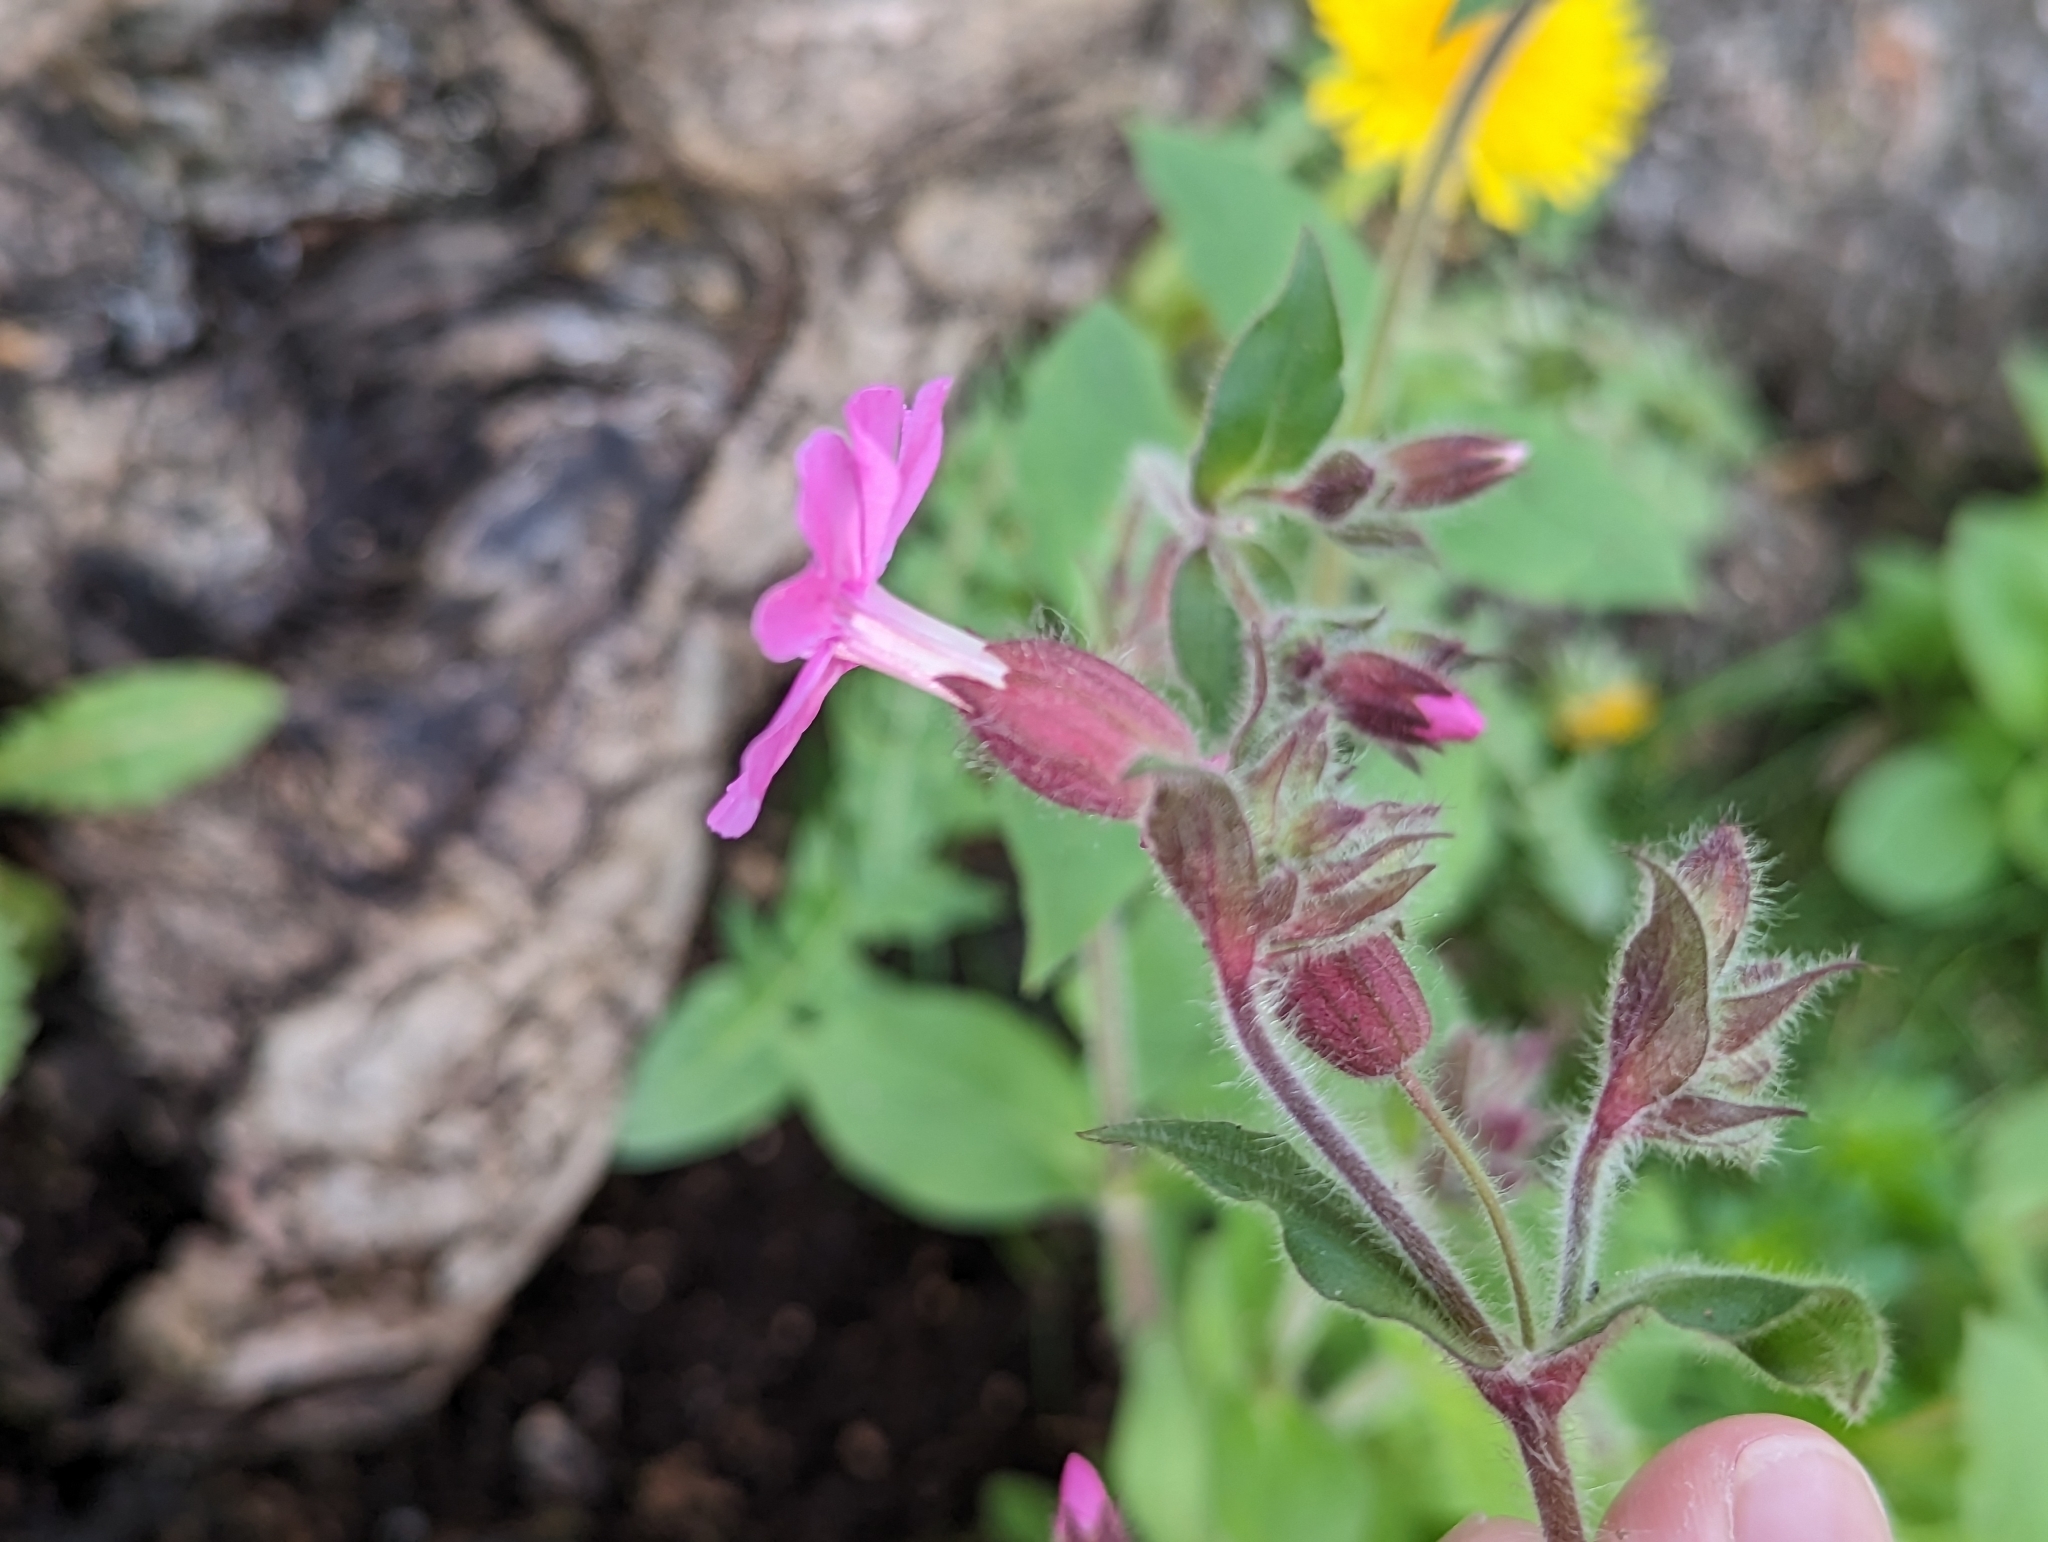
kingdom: Plantae
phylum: Tracheophyta
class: Magnoliopsida
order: Caryophyllales
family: Caryophyllaceae
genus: Silene
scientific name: Silene dioica
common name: Red campion
